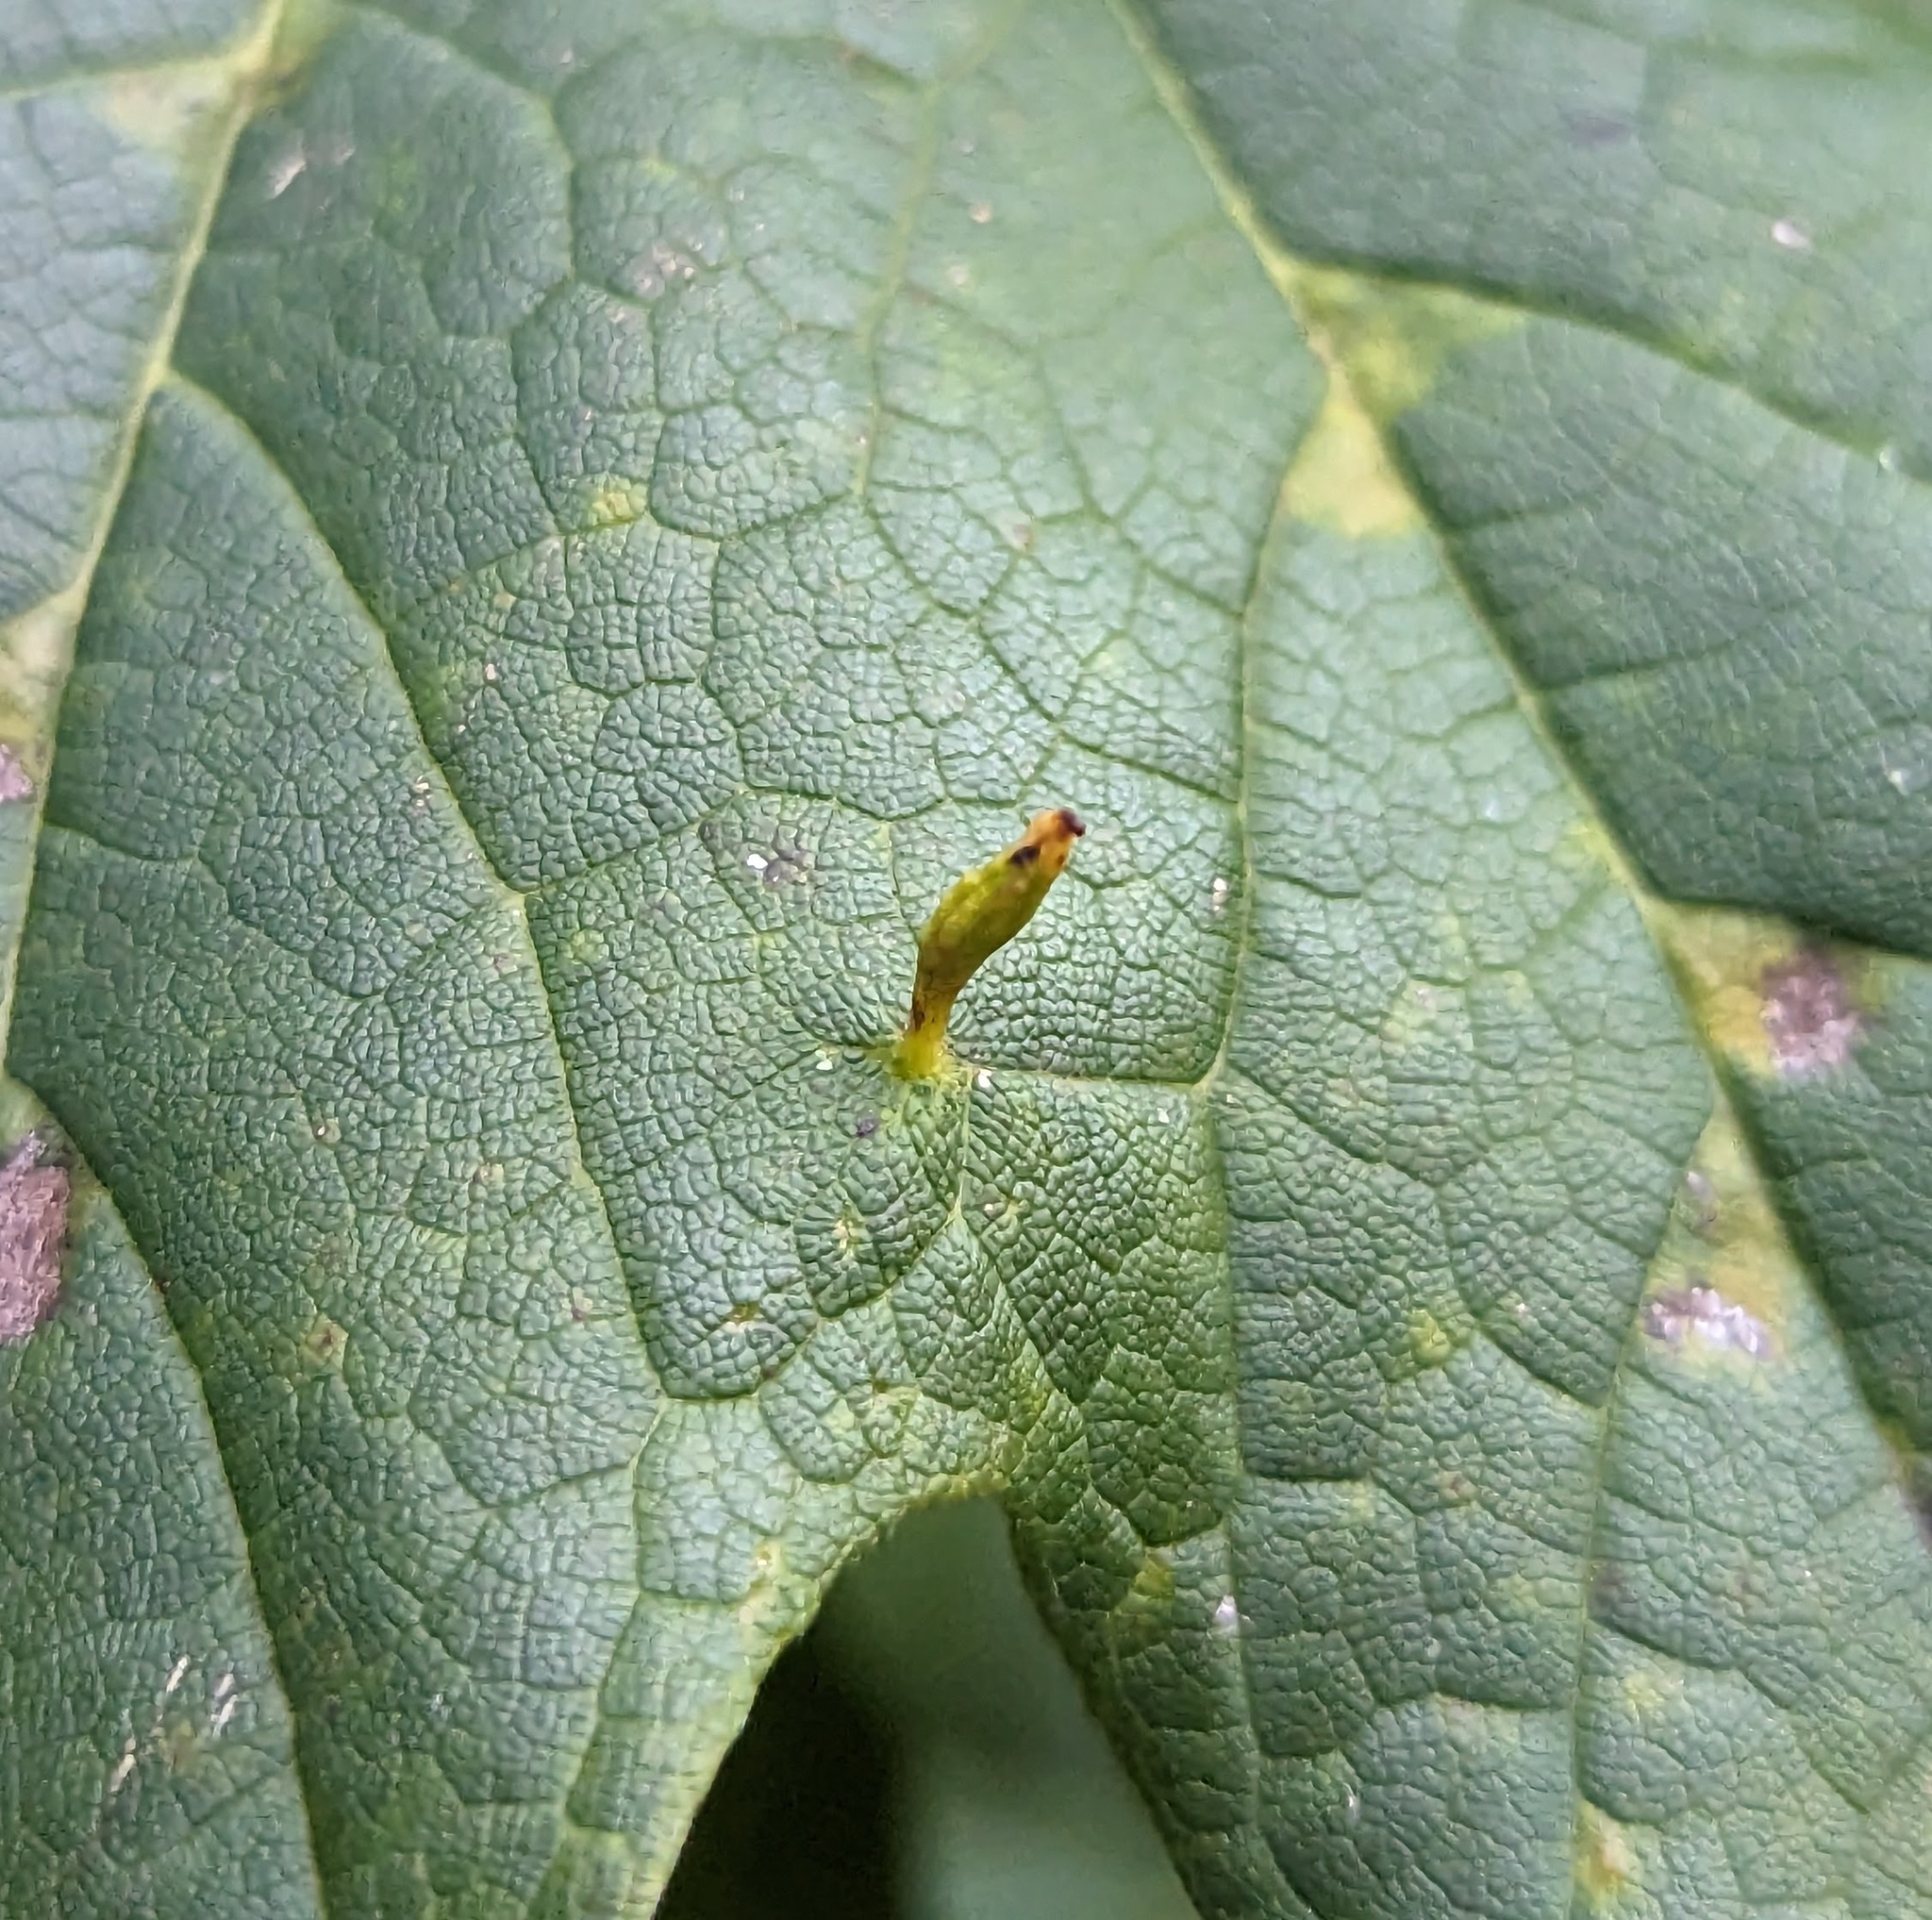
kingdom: Animalia
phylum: Arthropoda
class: Arachnida
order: Trombidiformes
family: Eriophyidae
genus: Vasates
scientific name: Vasates aceriscrumena
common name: Maple spindle gall mite
